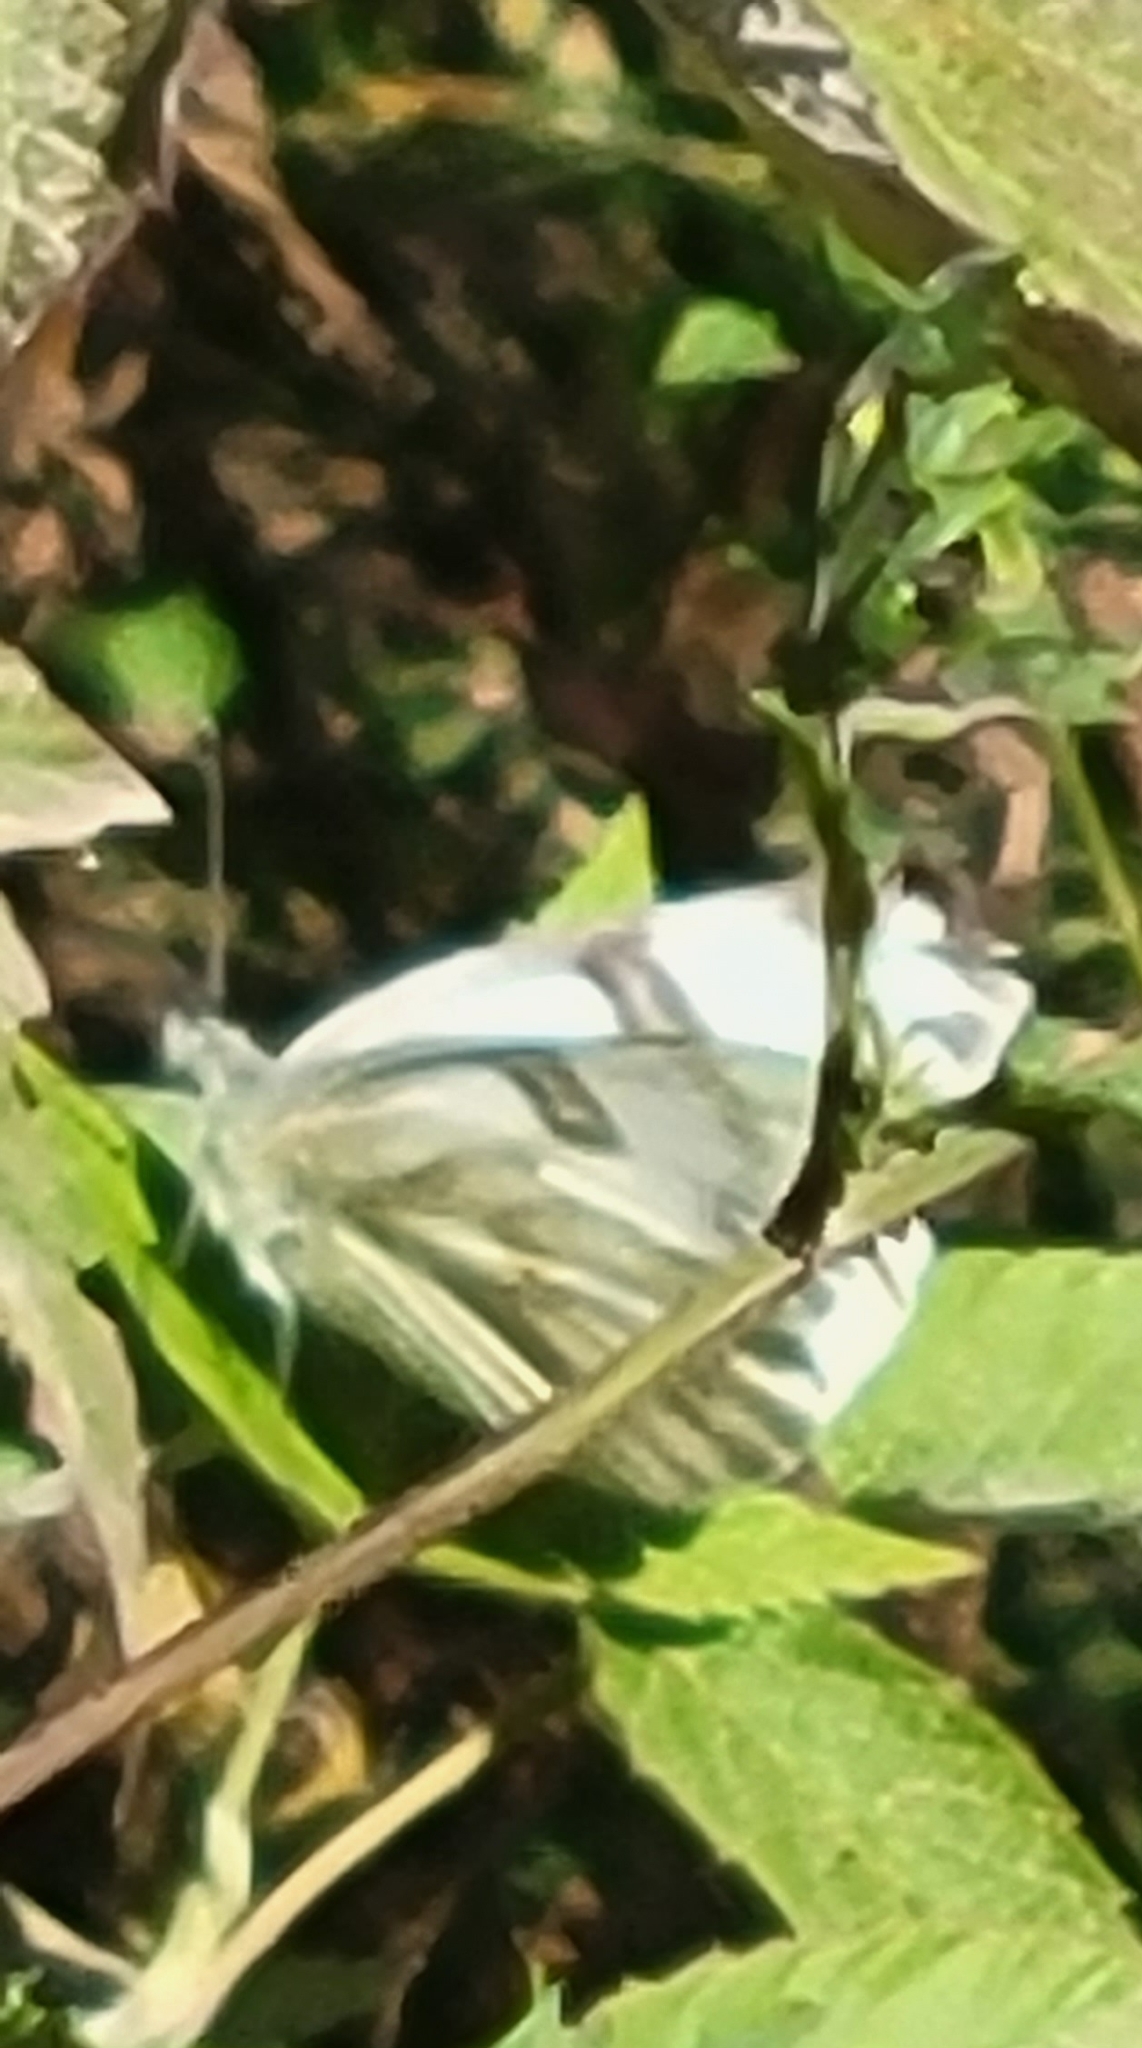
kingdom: Animalia
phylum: Arthropoda
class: Insecta
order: Lepidoptera
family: Pieridae
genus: Pontia
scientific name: Pontia protodice
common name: Checkered white
